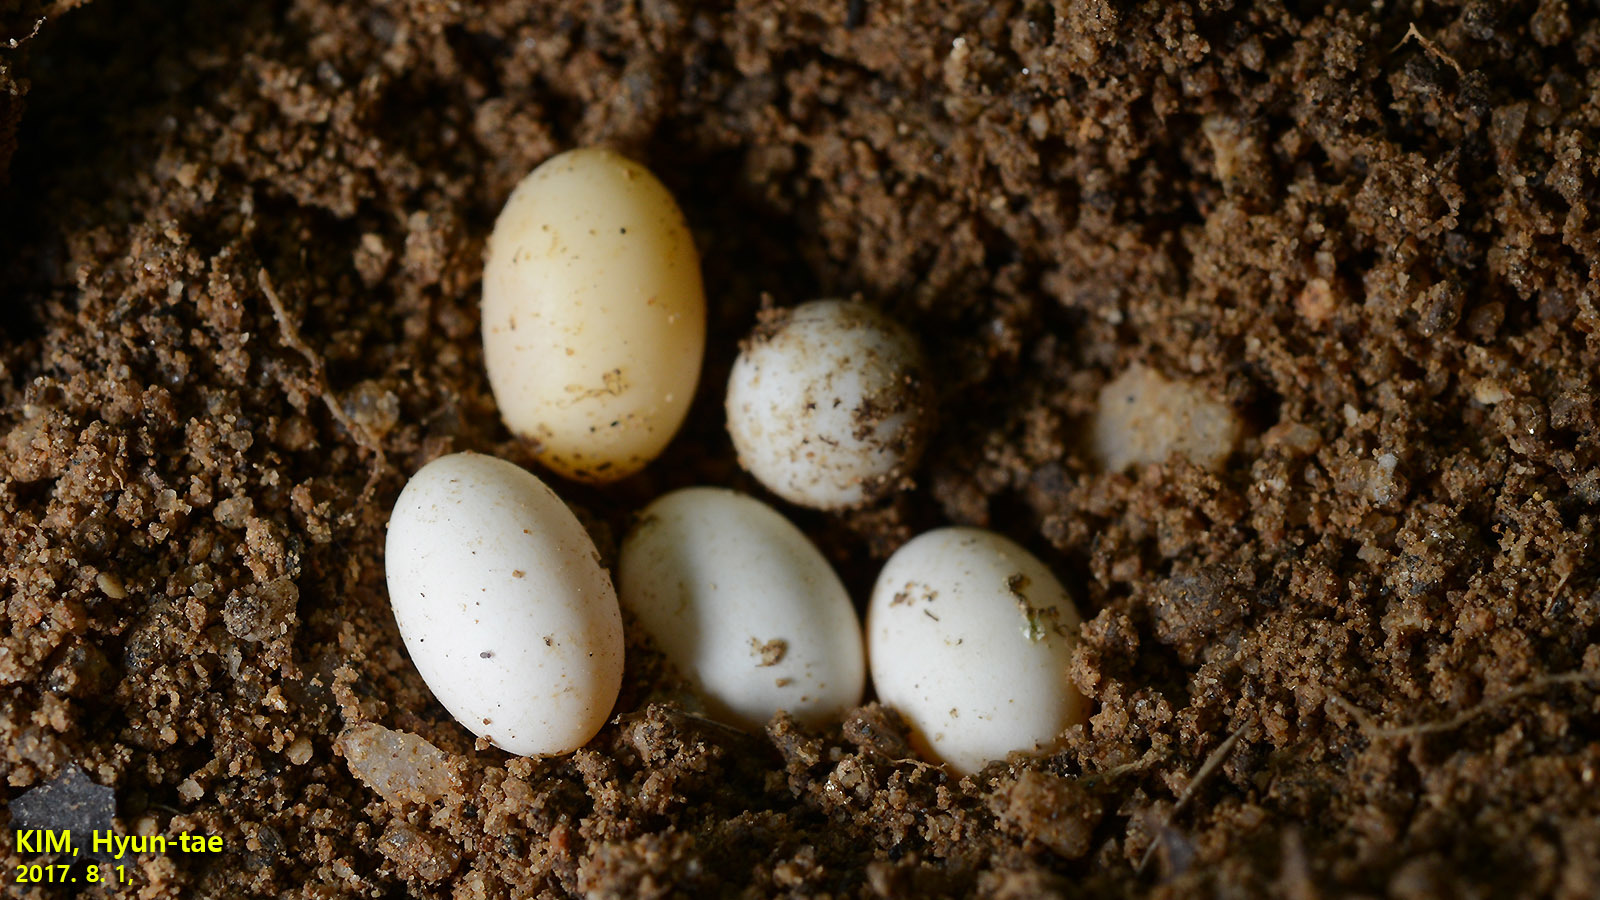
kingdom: Animalia
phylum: Chordata
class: Squamata
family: Lacertidae
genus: Takydromus
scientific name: Takydromus wolteri
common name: Mountain grass lizard
